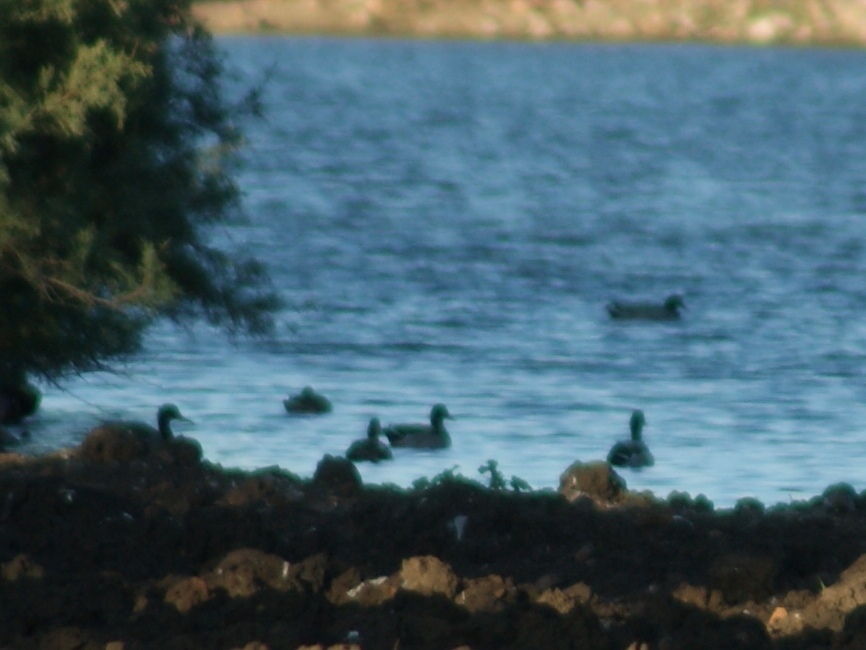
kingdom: Animalia
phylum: Chordata
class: Aves
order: Anseriformes
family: Anatidae
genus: Anas
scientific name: Anas platyrhynchos
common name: Mallard
